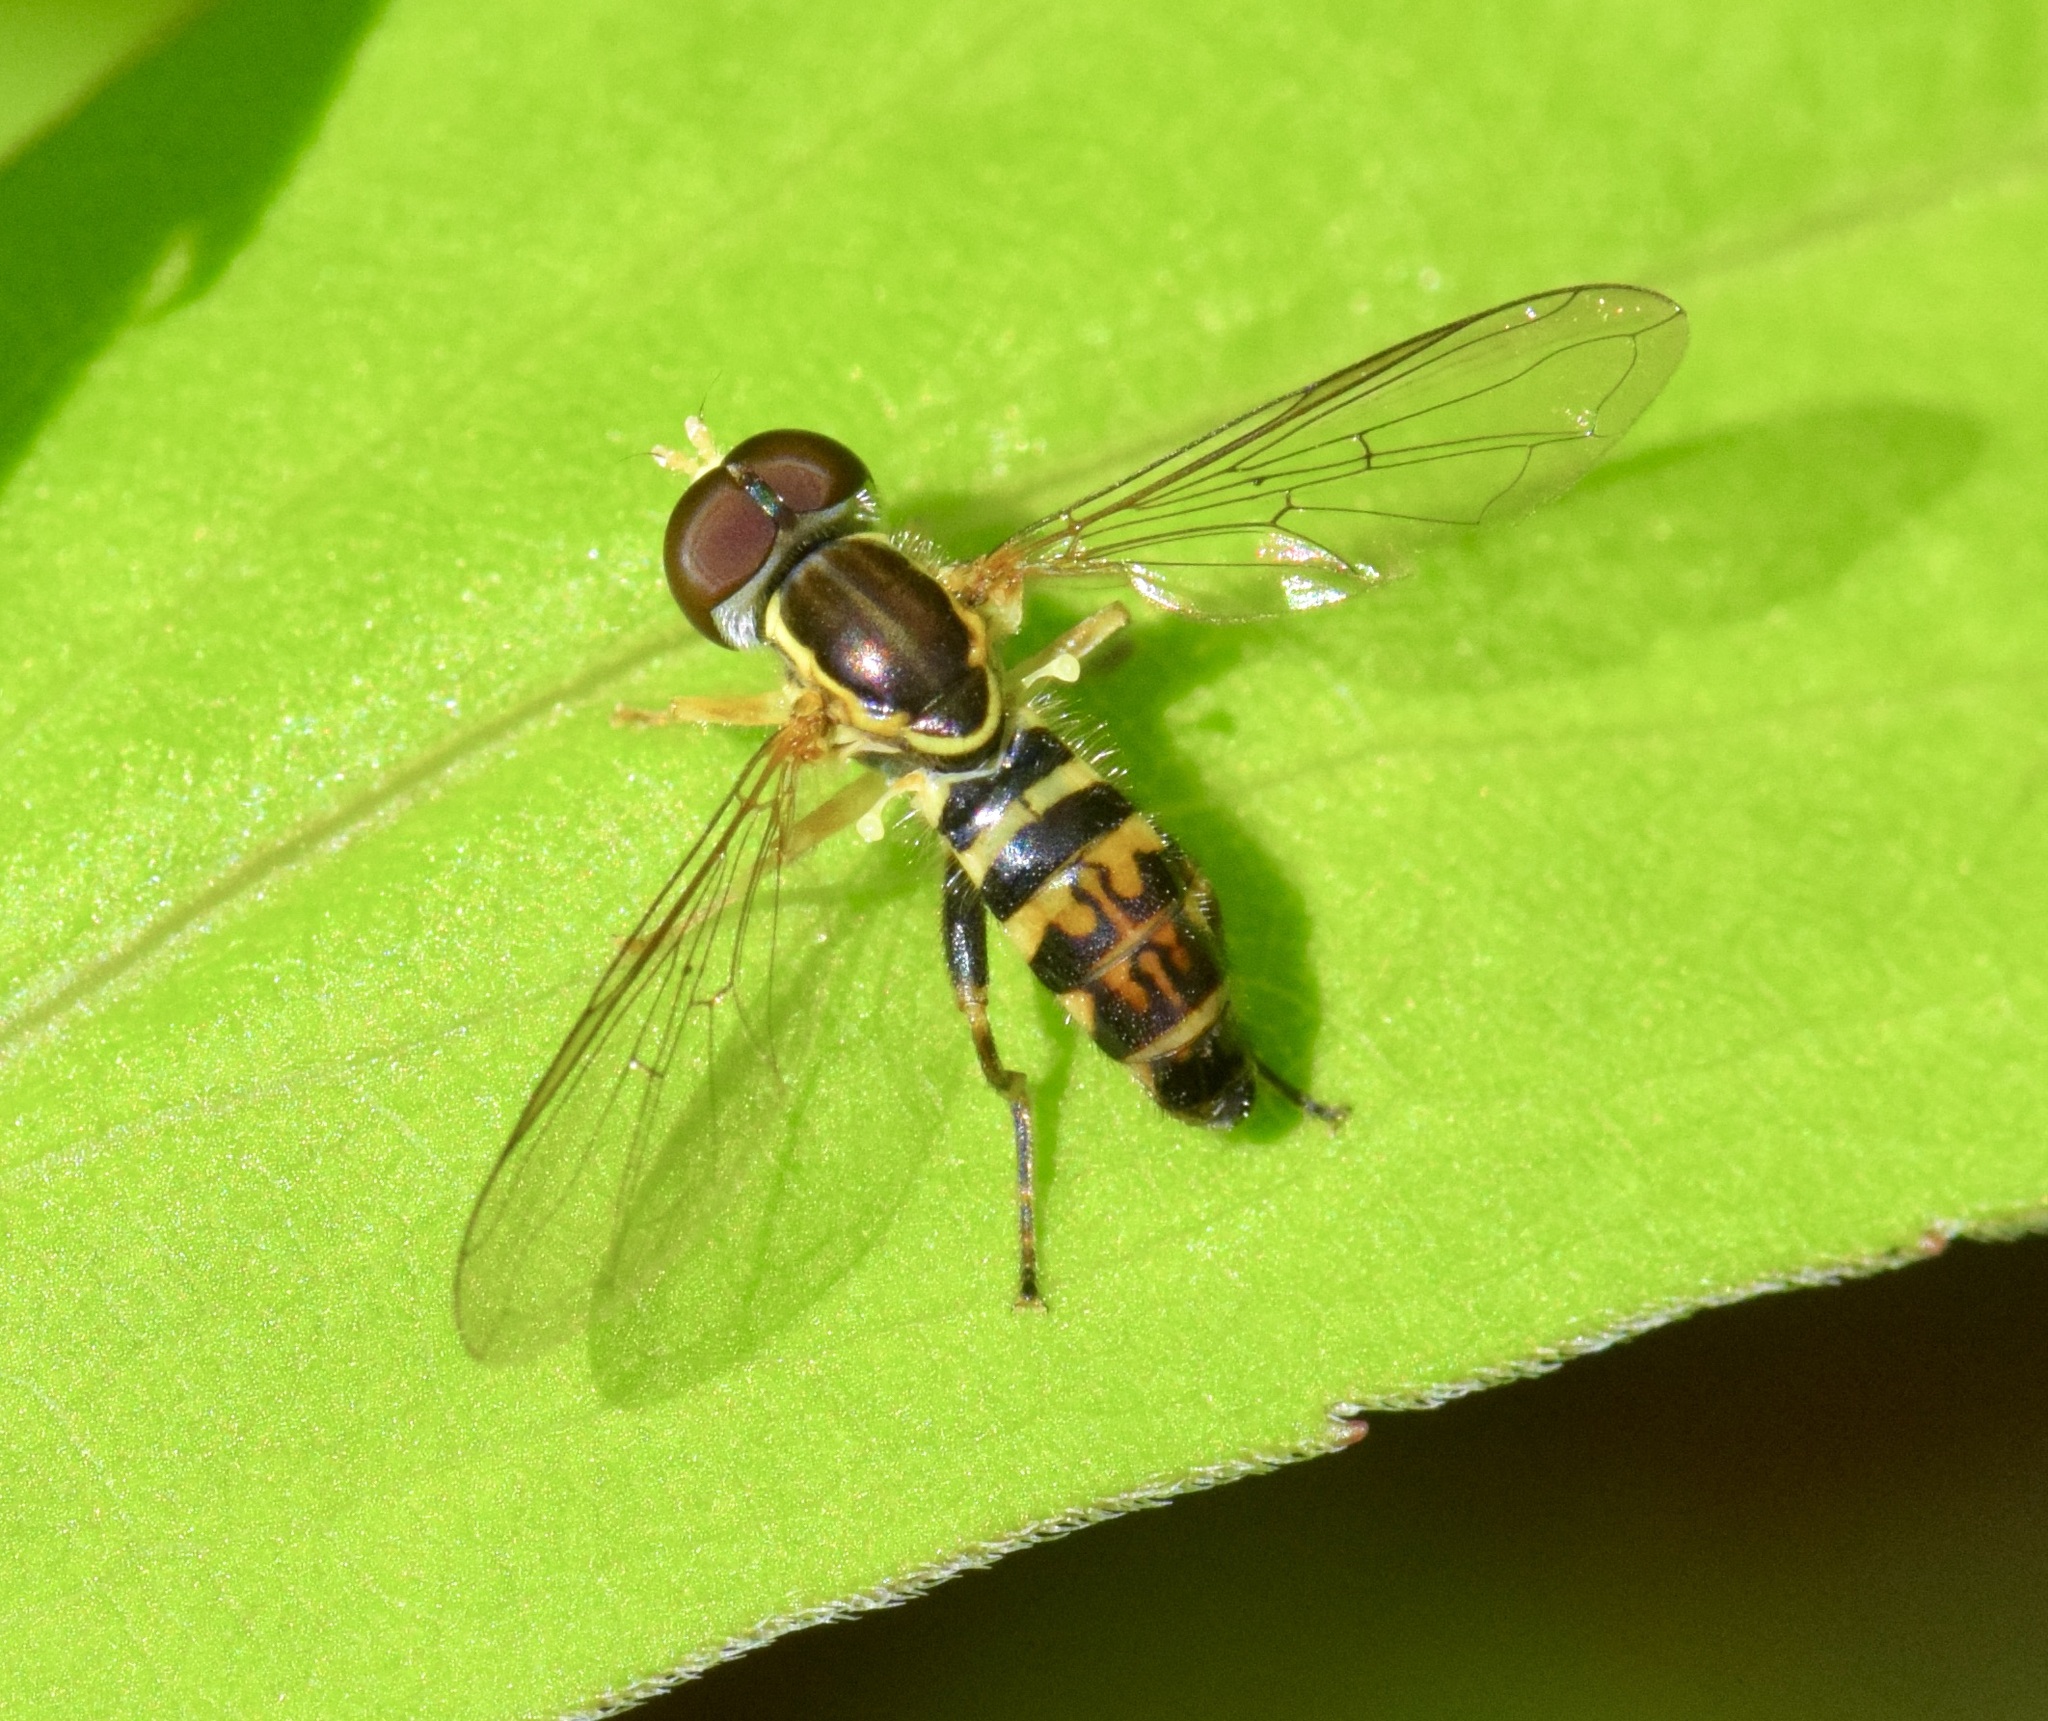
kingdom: Animalia
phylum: Arthropoda
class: Insecta
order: Diptera
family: Syrphidae
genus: Toxomerus
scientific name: Toxomerus geminatus
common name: Eastern calligrapher
